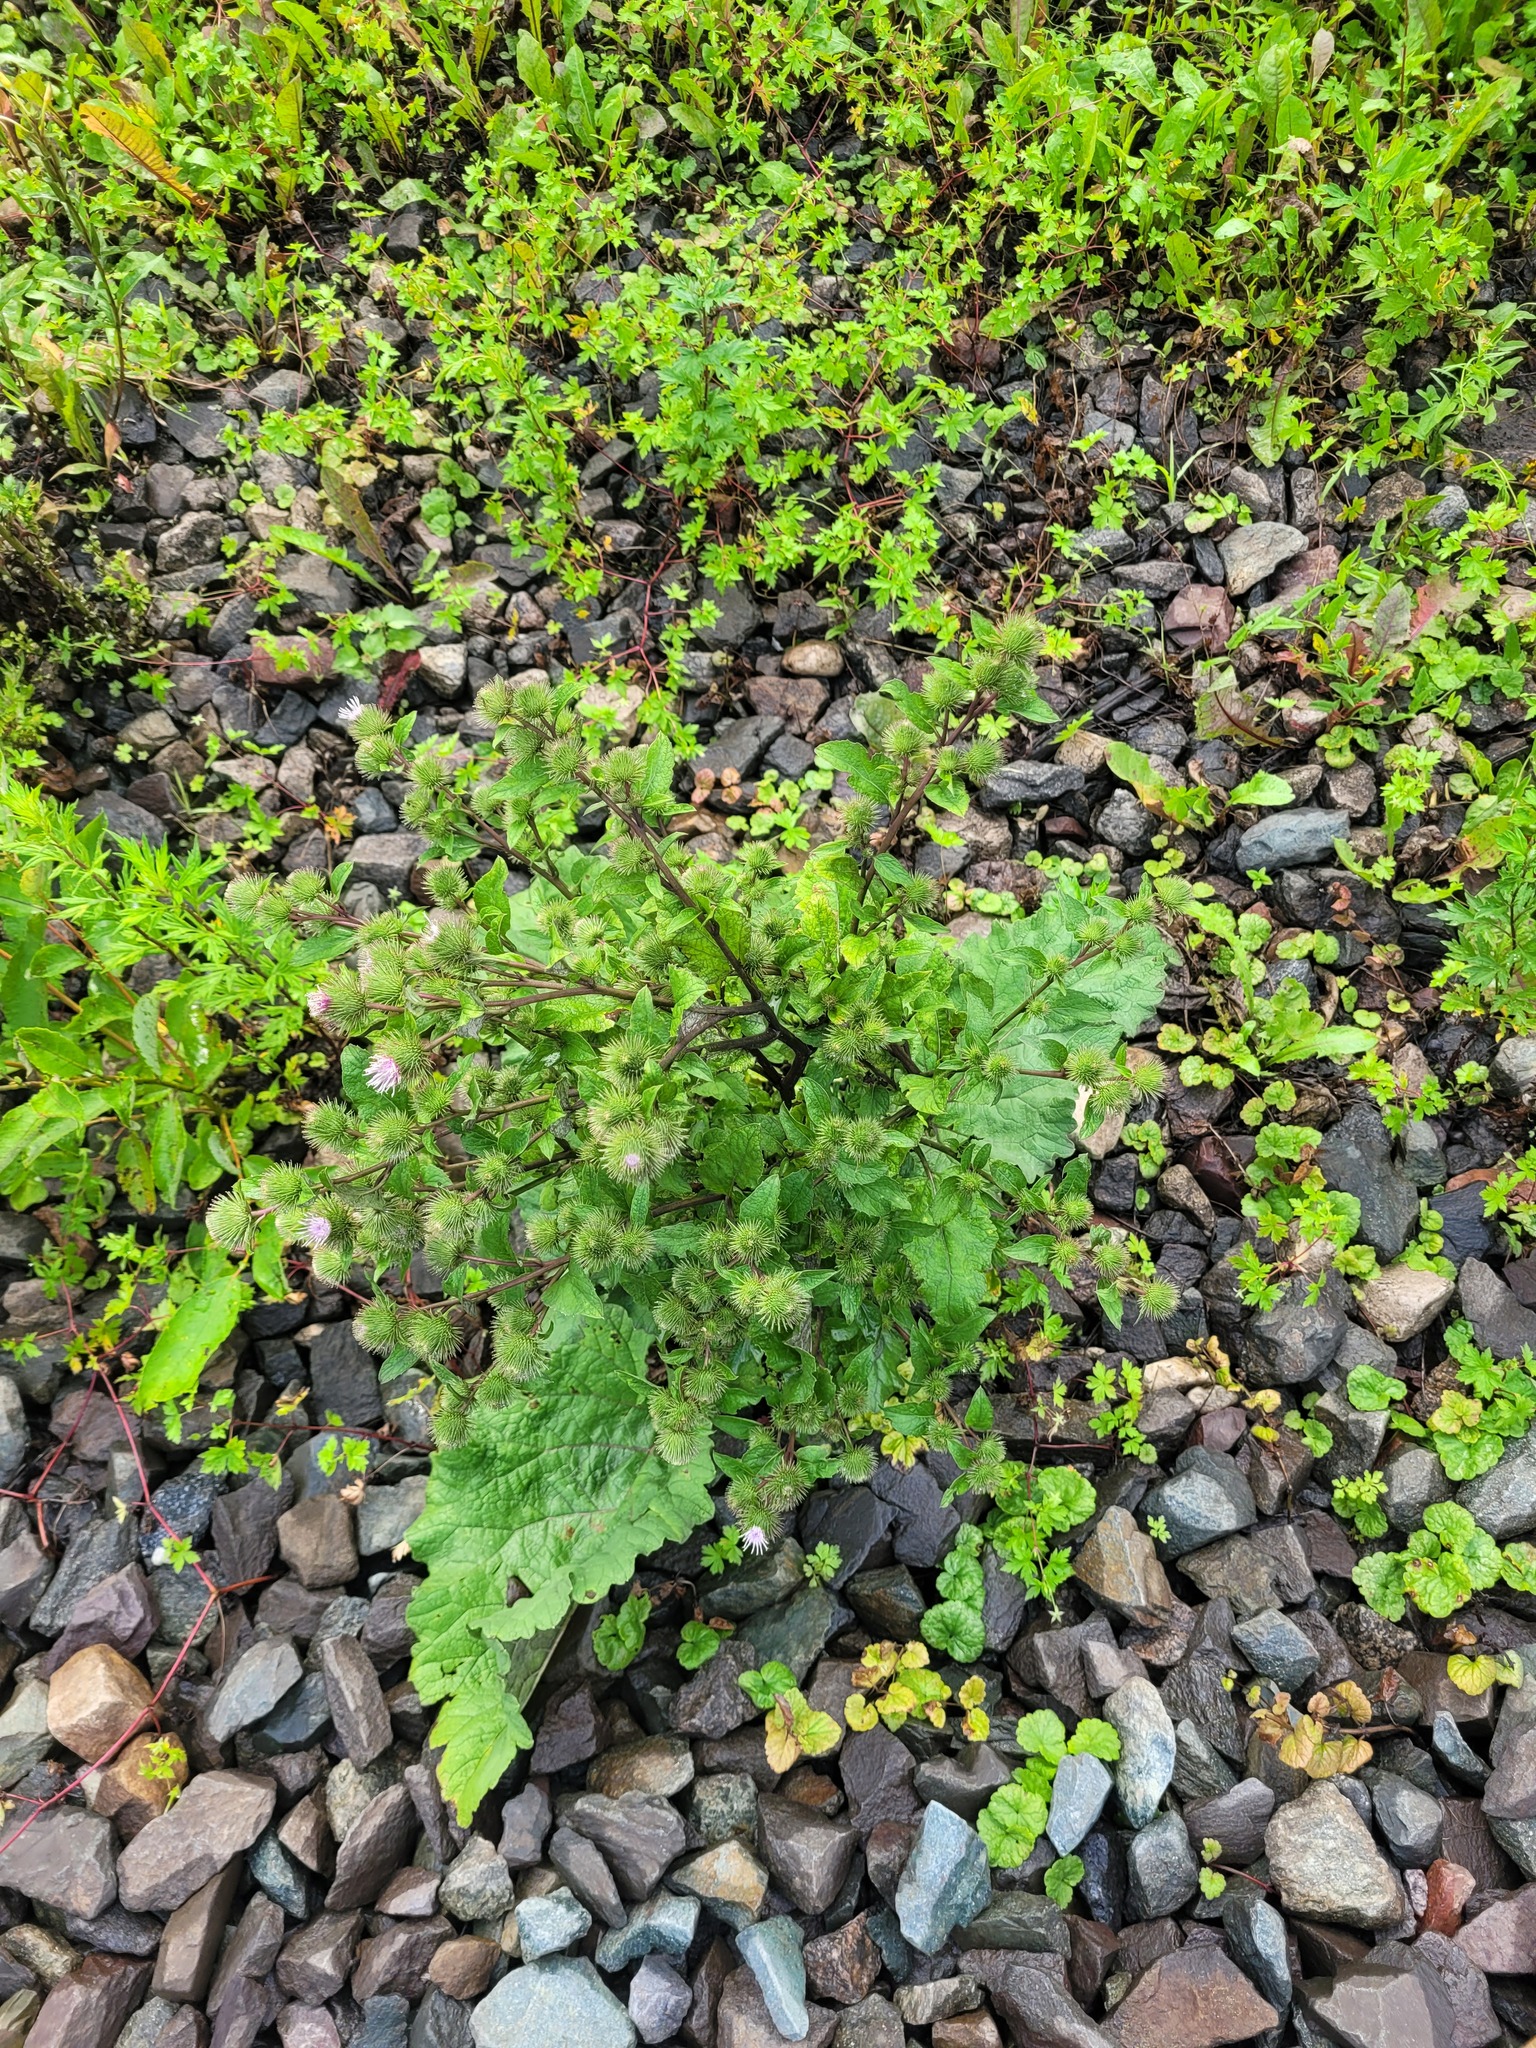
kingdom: Plantae
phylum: Tracheophyta
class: Magnoliopsida
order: Asterales
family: Asteraceae
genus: Arctium
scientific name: Arctium minus
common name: Lesser burdock
